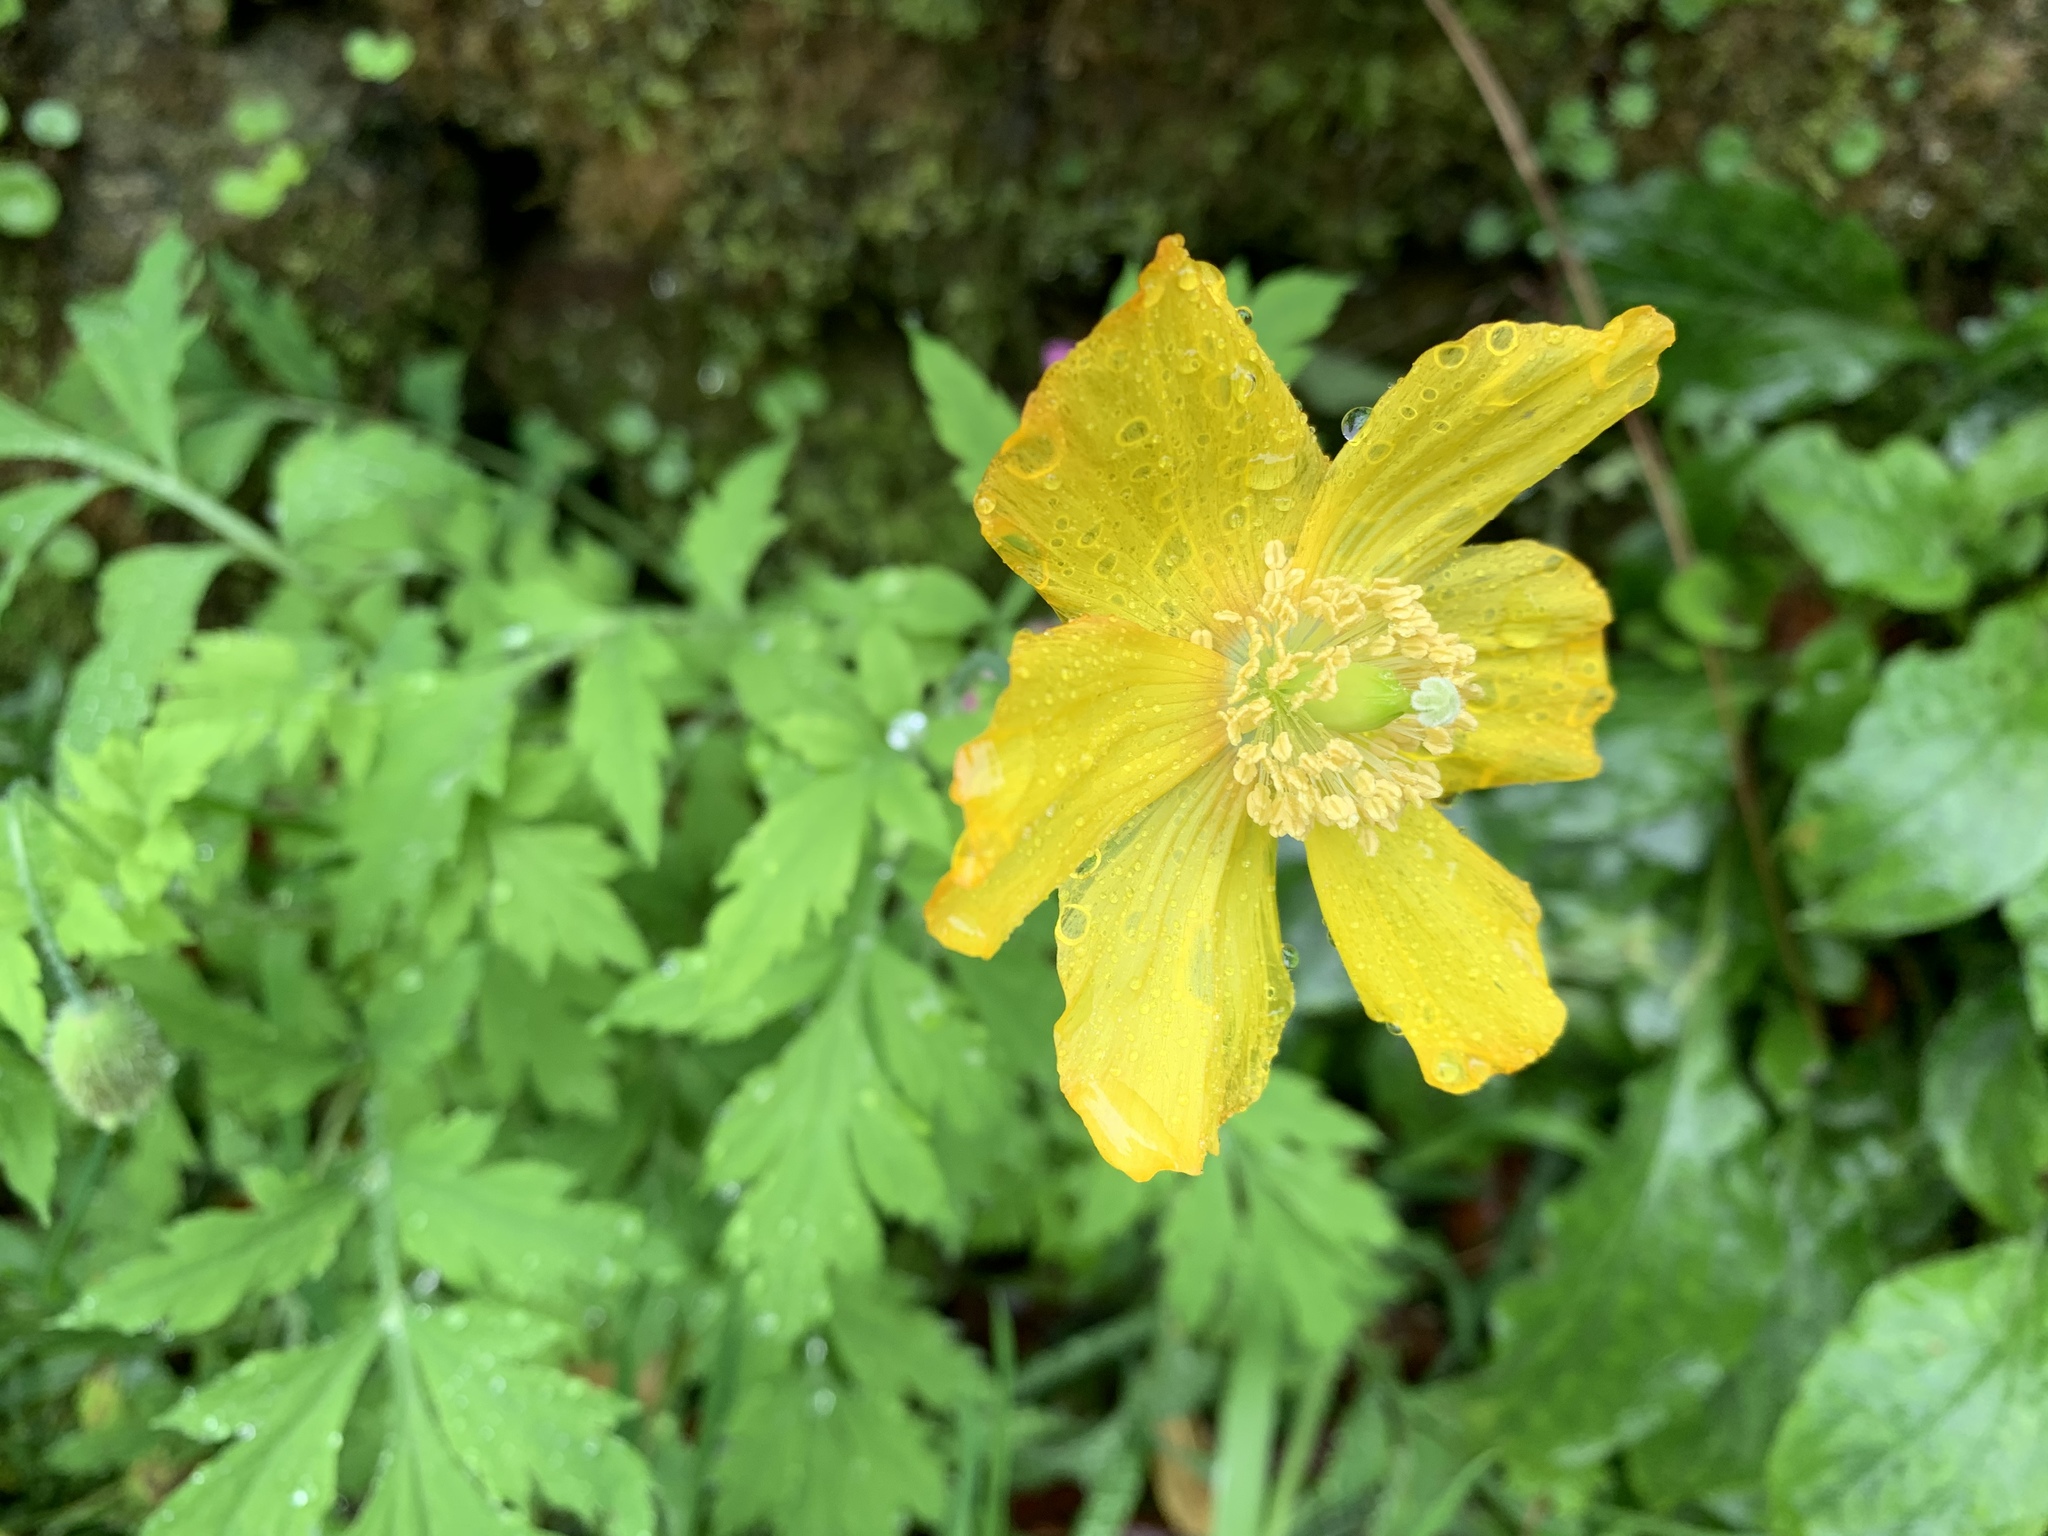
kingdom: Plantae
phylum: Tracheophyta
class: Magnoliopsida
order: Ranunculales
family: Papaveraceae
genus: Papaver
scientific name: Papaver cambricum
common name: Poppy
